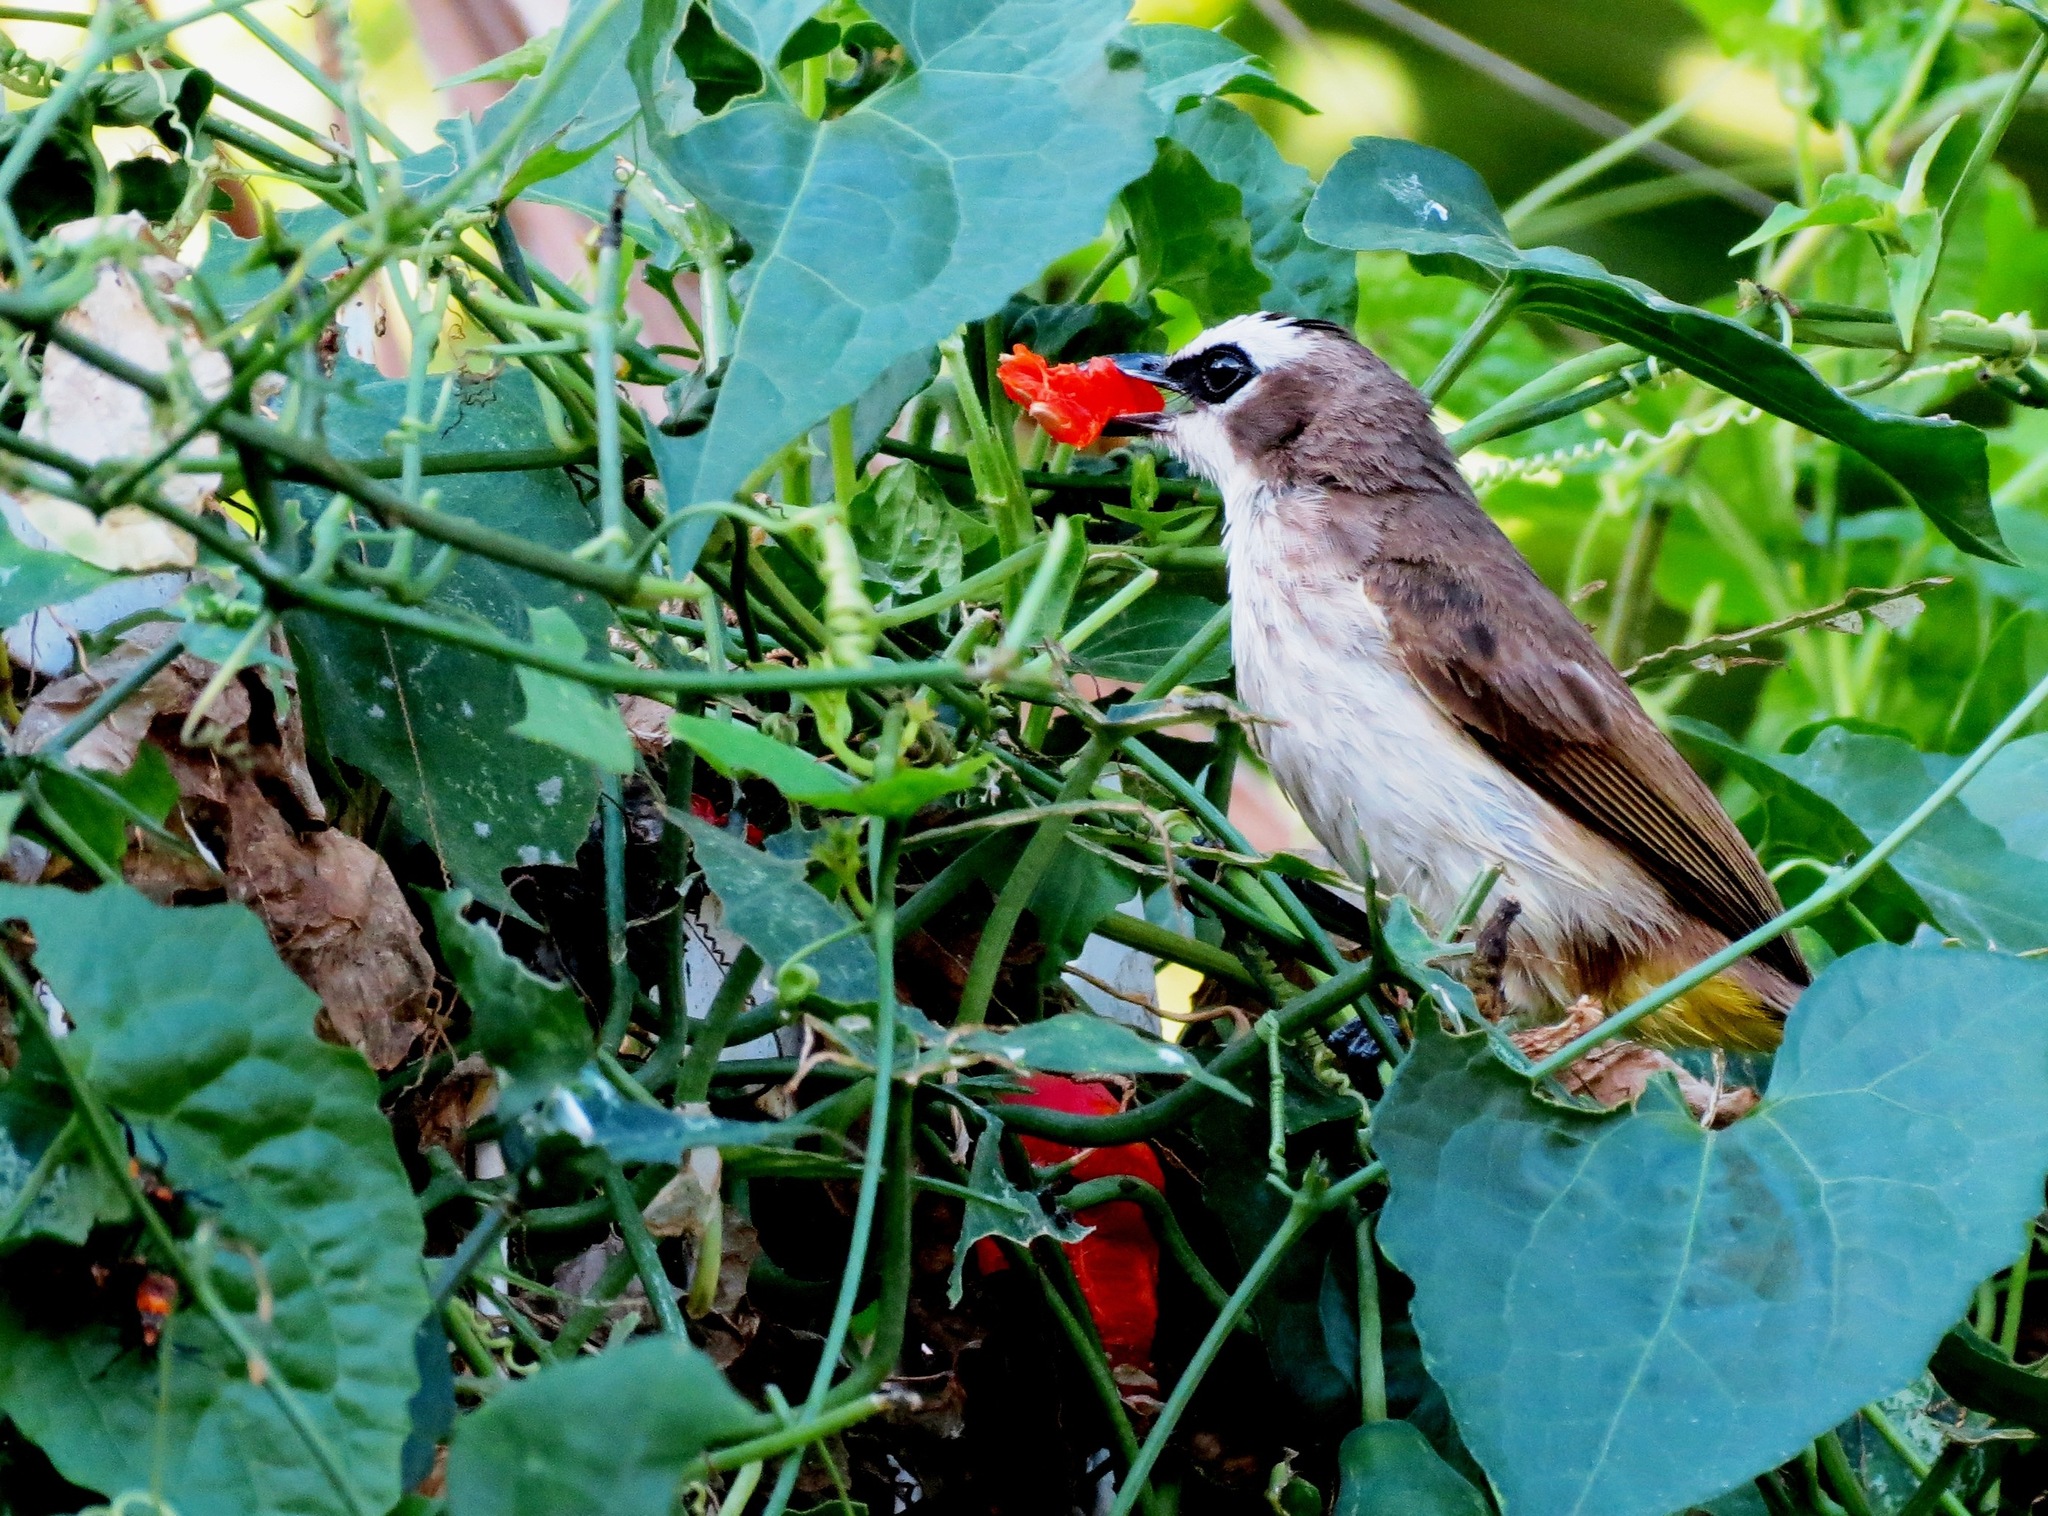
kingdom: Animalia
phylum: Chordata
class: Aves
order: Passeriformes
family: Pycnonotidae
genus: Pycnonotus
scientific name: Pycnonotus goiavier
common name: Yellow-vented bulbul
